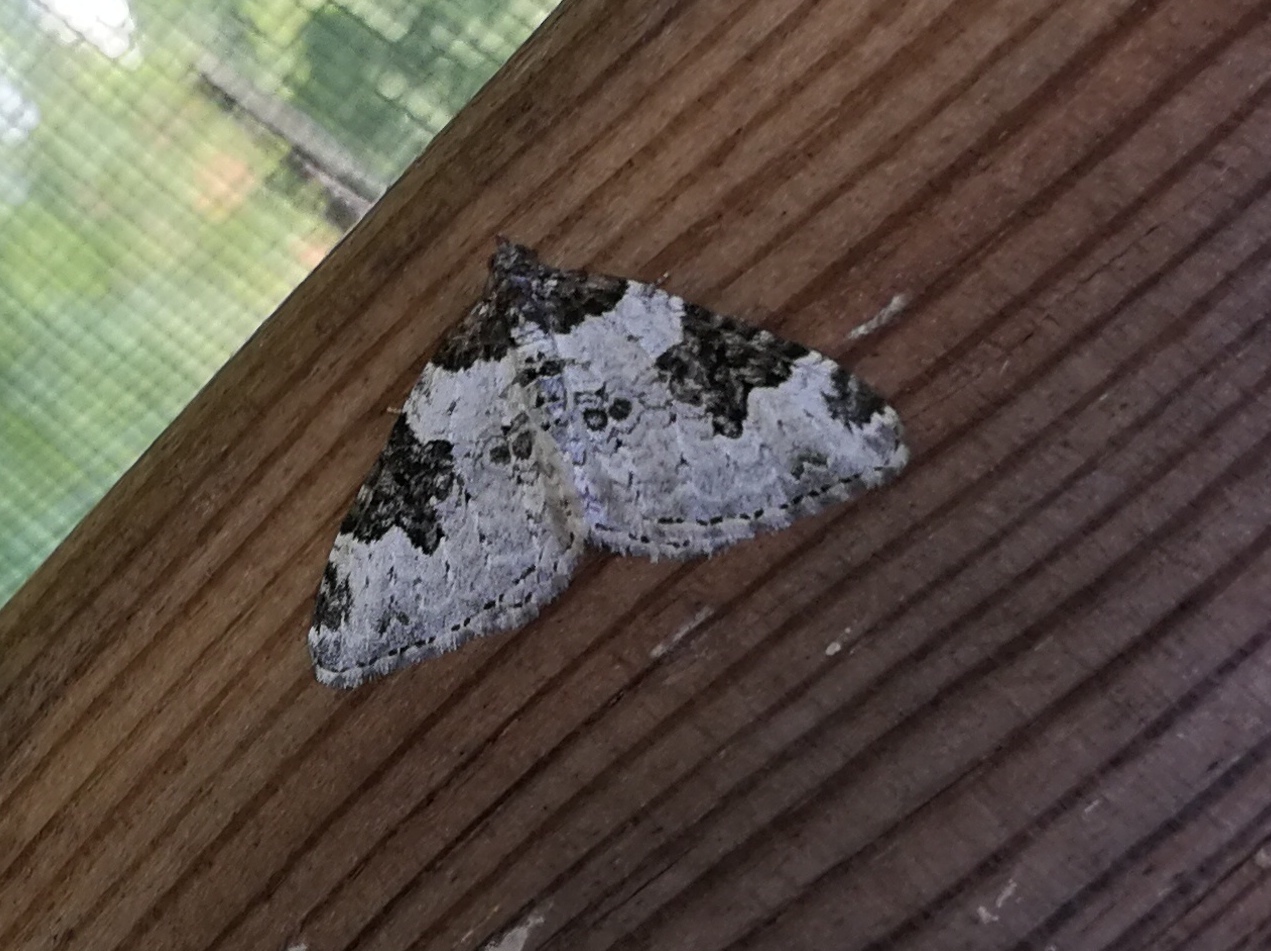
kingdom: Animalia
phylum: Arthropoda
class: Insecta
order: Lepidoptera
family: Geometridae
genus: Xanthorhoe
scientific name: Xanthorhoe fluctuata
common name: Garden carpet
